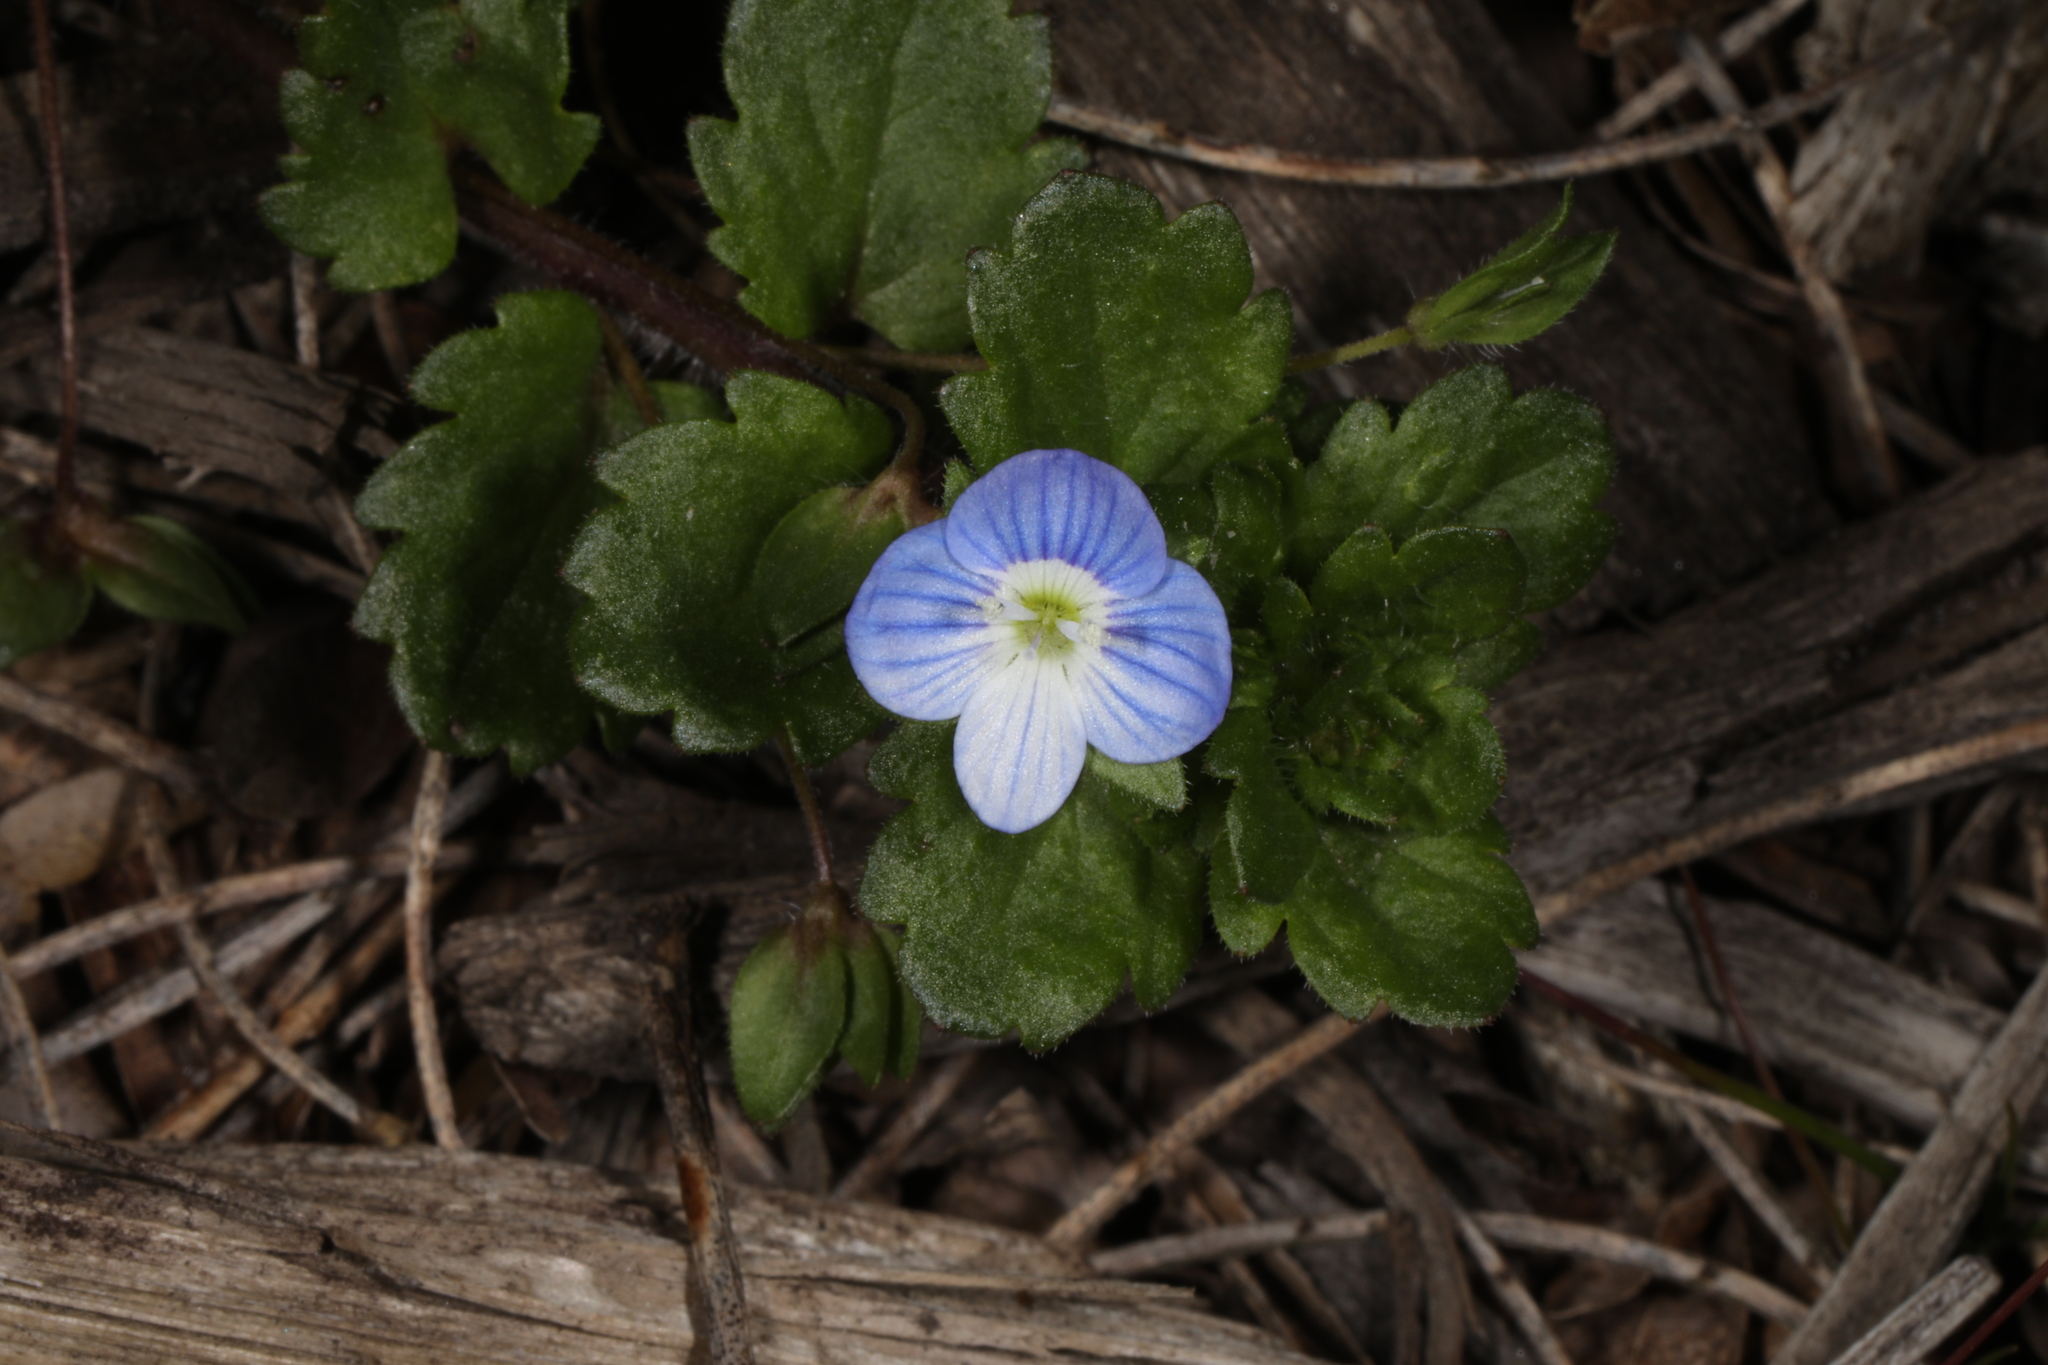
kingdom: Plantae
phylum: Tracheophyta
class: Magnoliopsida
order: Lamiales
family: Plantaginaceae
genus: Veronica
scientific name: Veronica persica
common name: Common field-speedwell
